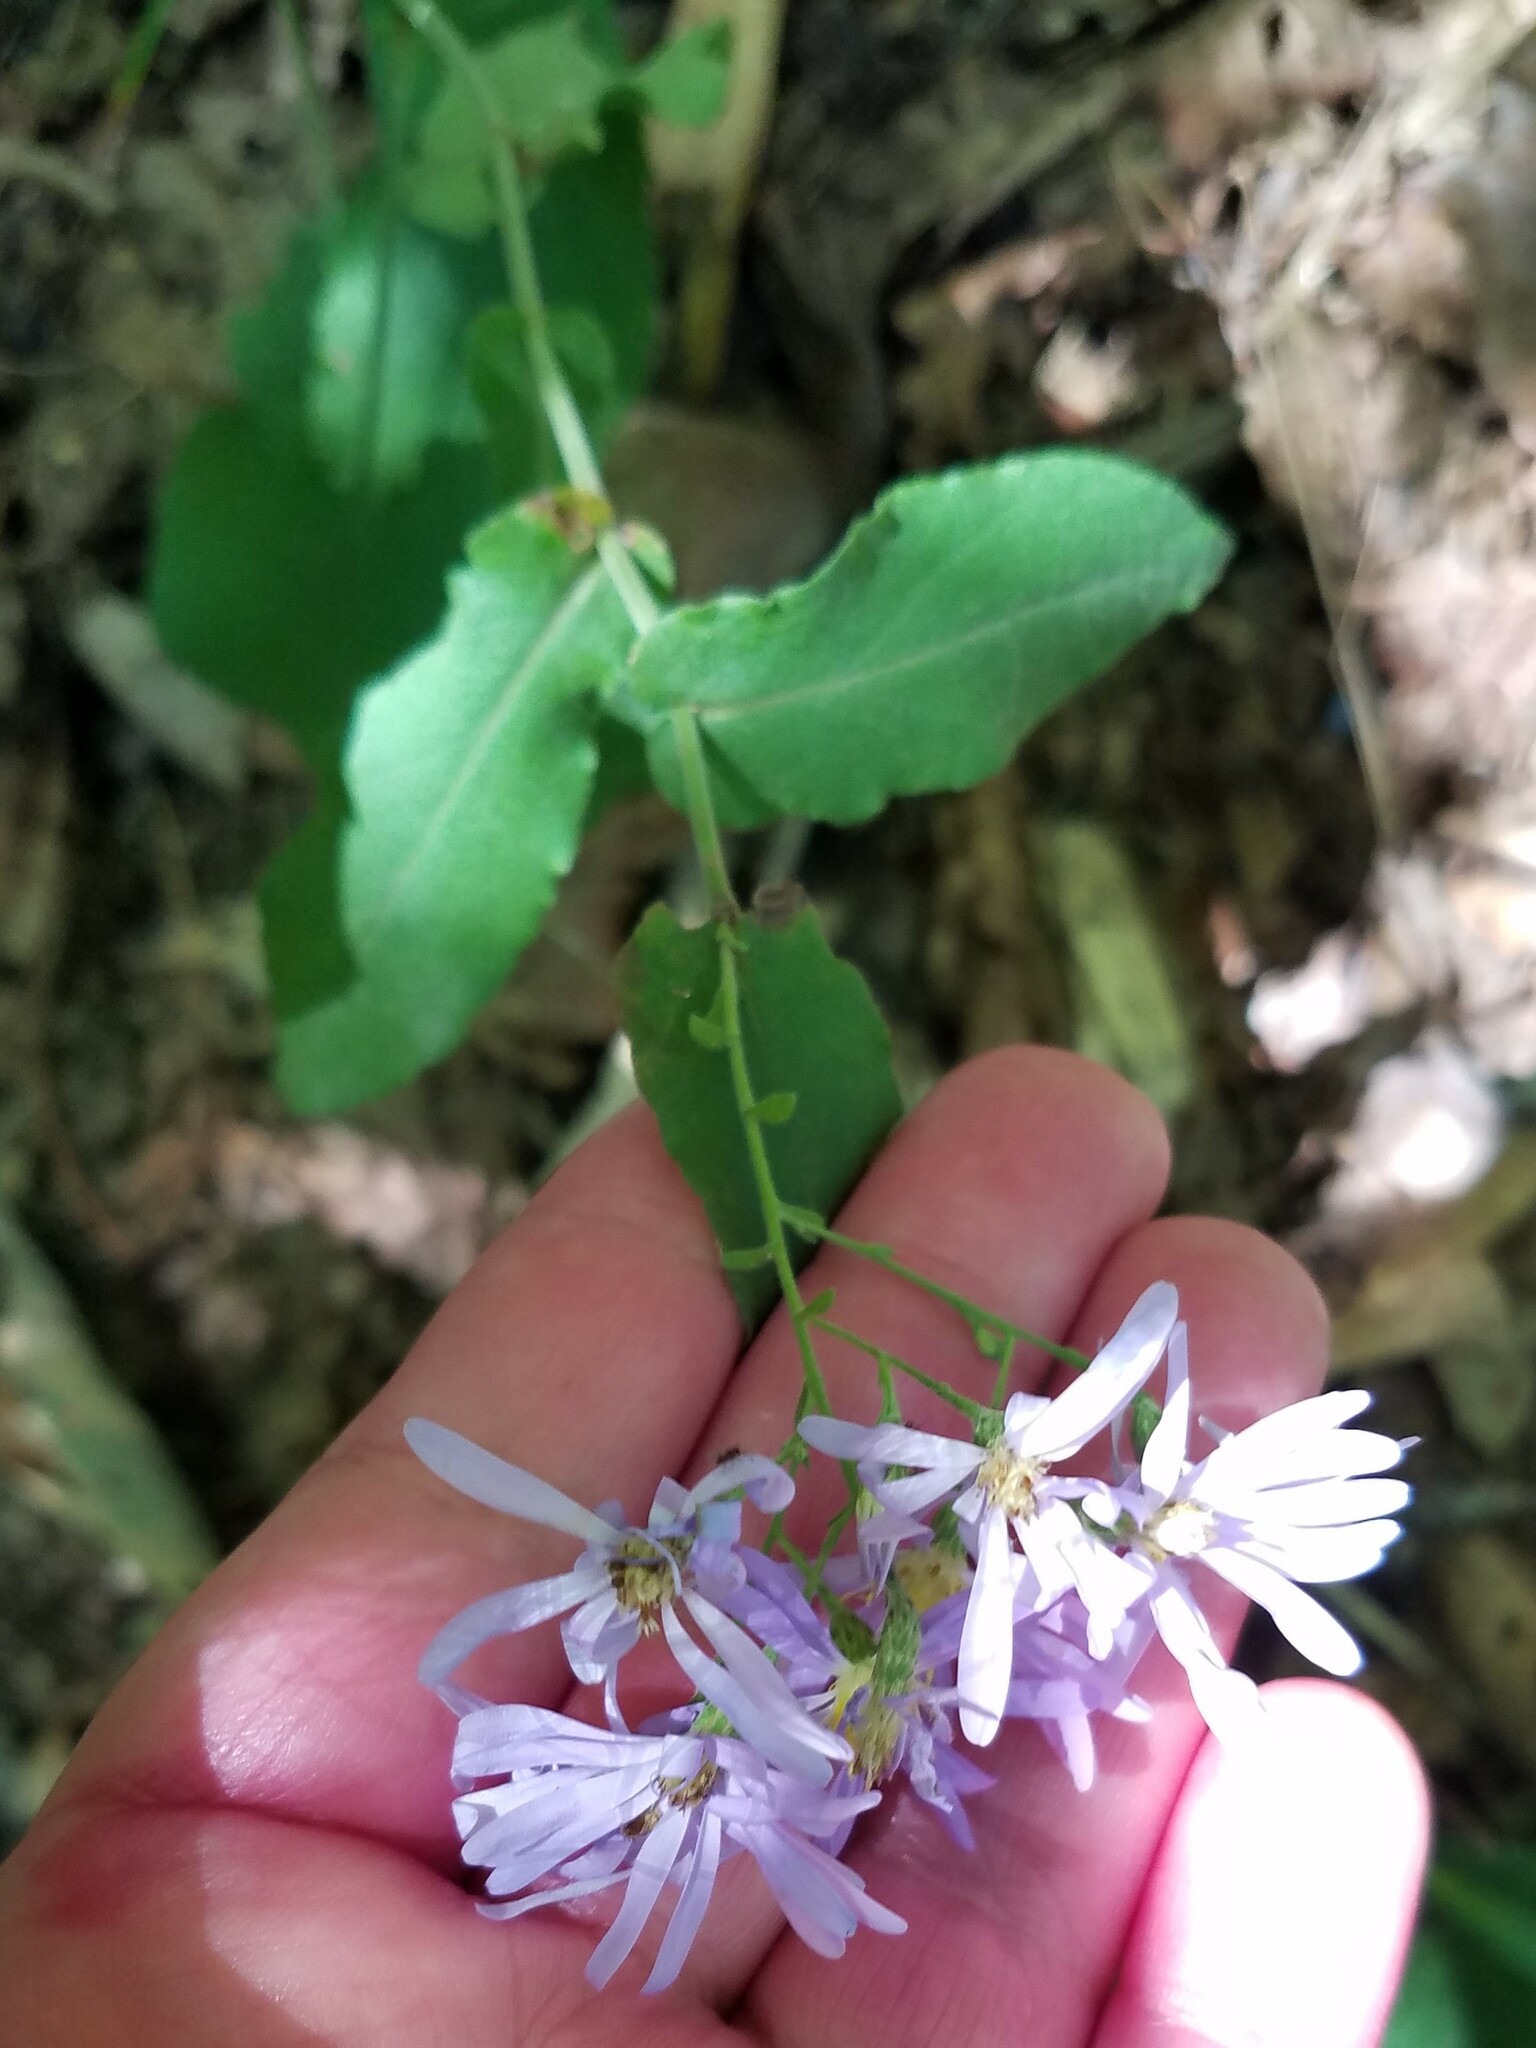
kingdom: Plantae
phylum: Tracheophyta
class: Magnoliopsida
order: Asterales
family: Asteraceae
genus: Symphyotrichum
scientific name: Symphyotrichum undulatum
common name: Clasping heart-leaf aster
